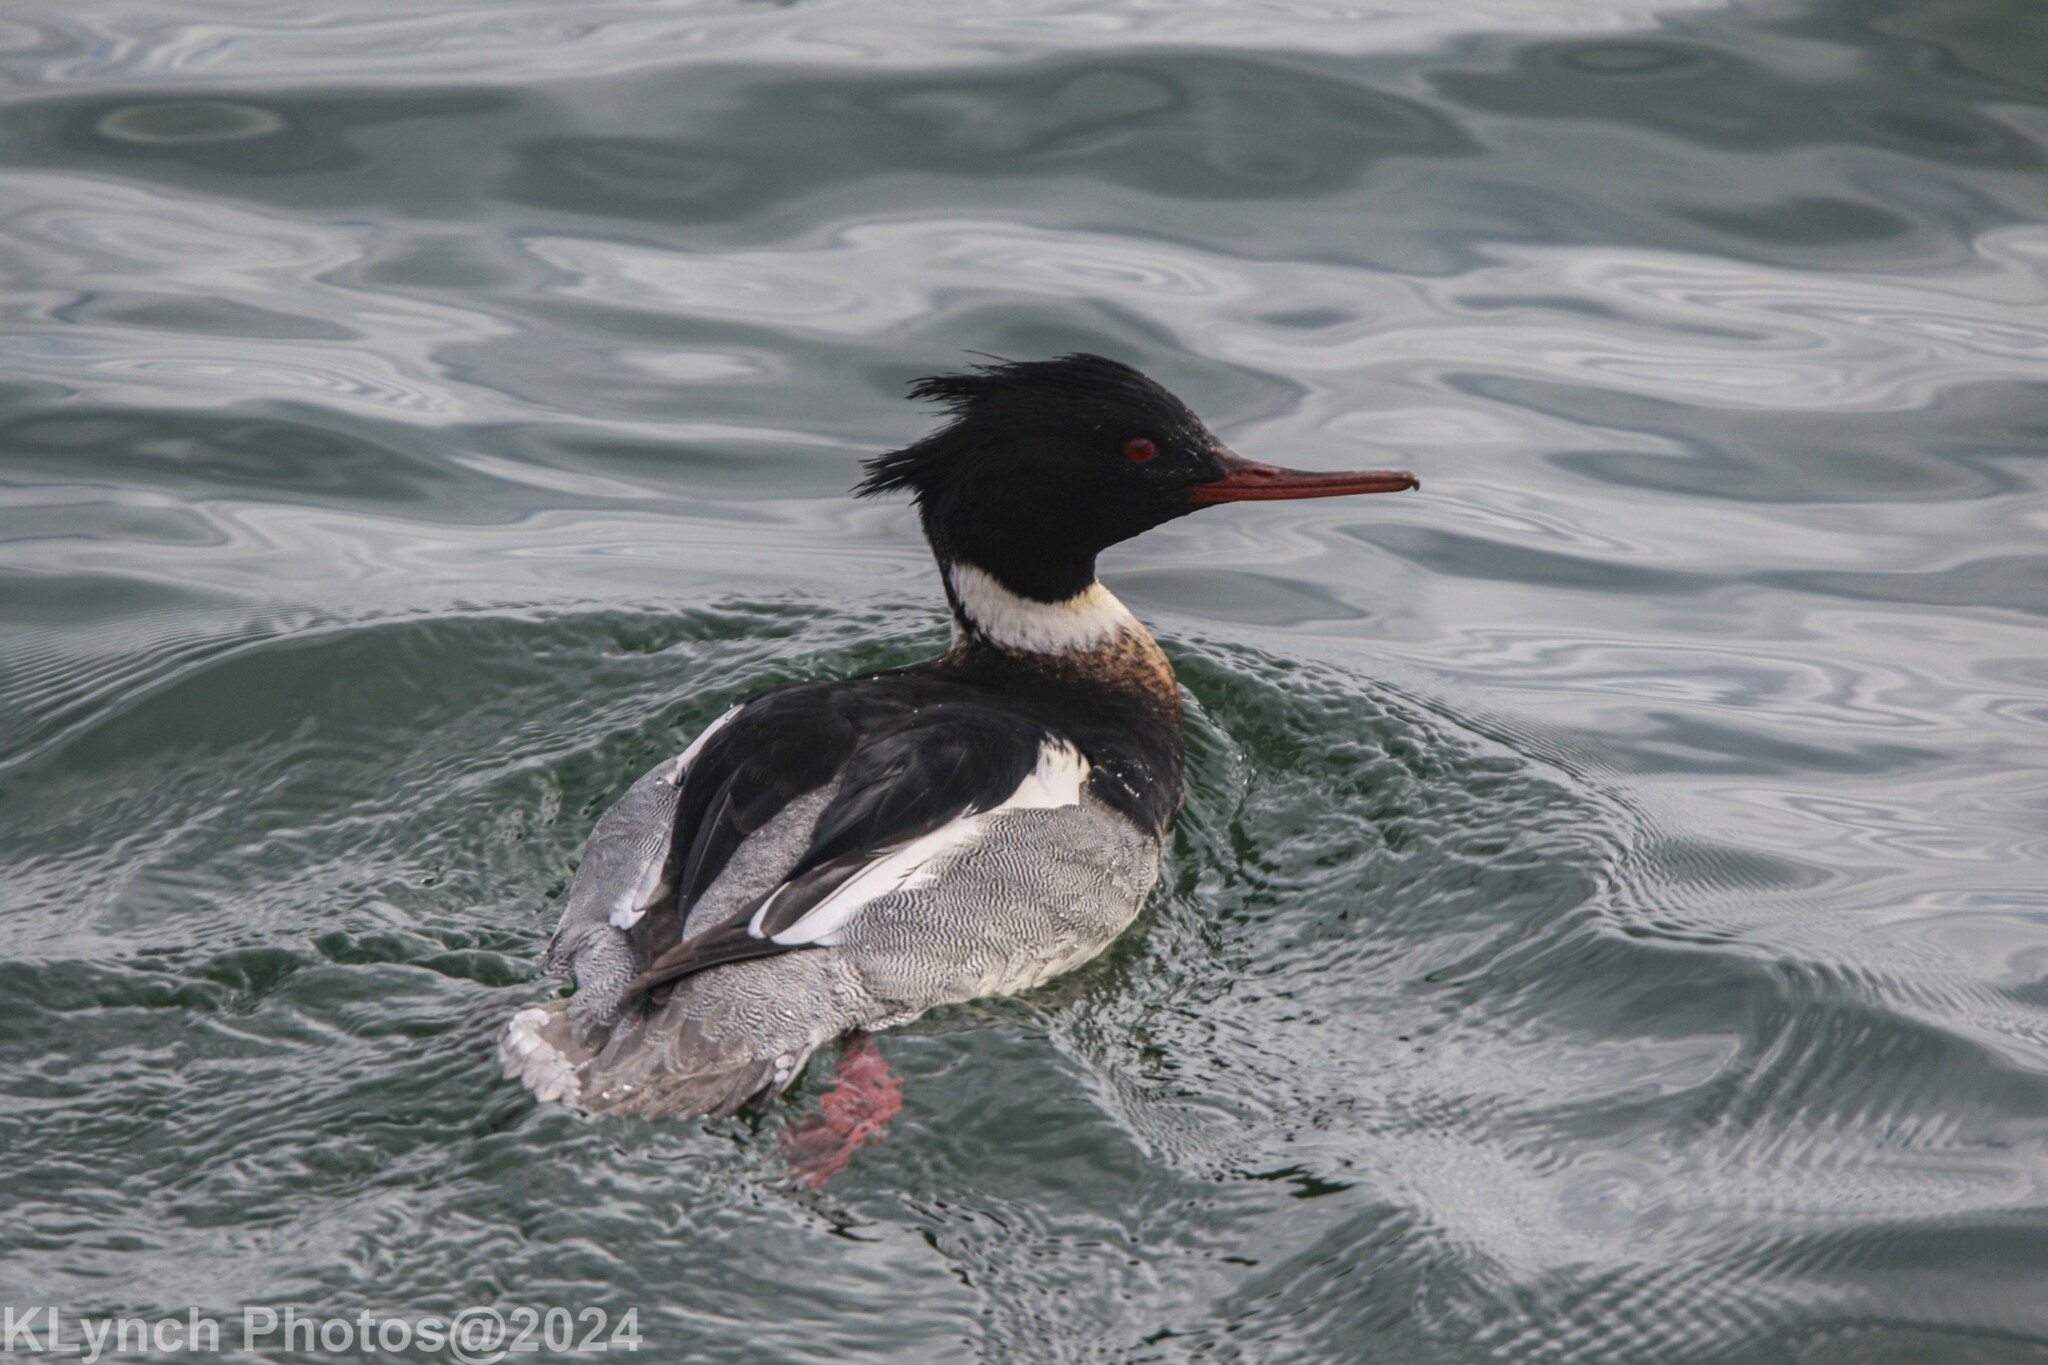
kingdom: Animalia
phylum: Chordata
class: Aves
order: Anseriformes
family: Anatidae
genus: Mergus
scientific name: Mergus serrator
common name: Red-breasted merganser
